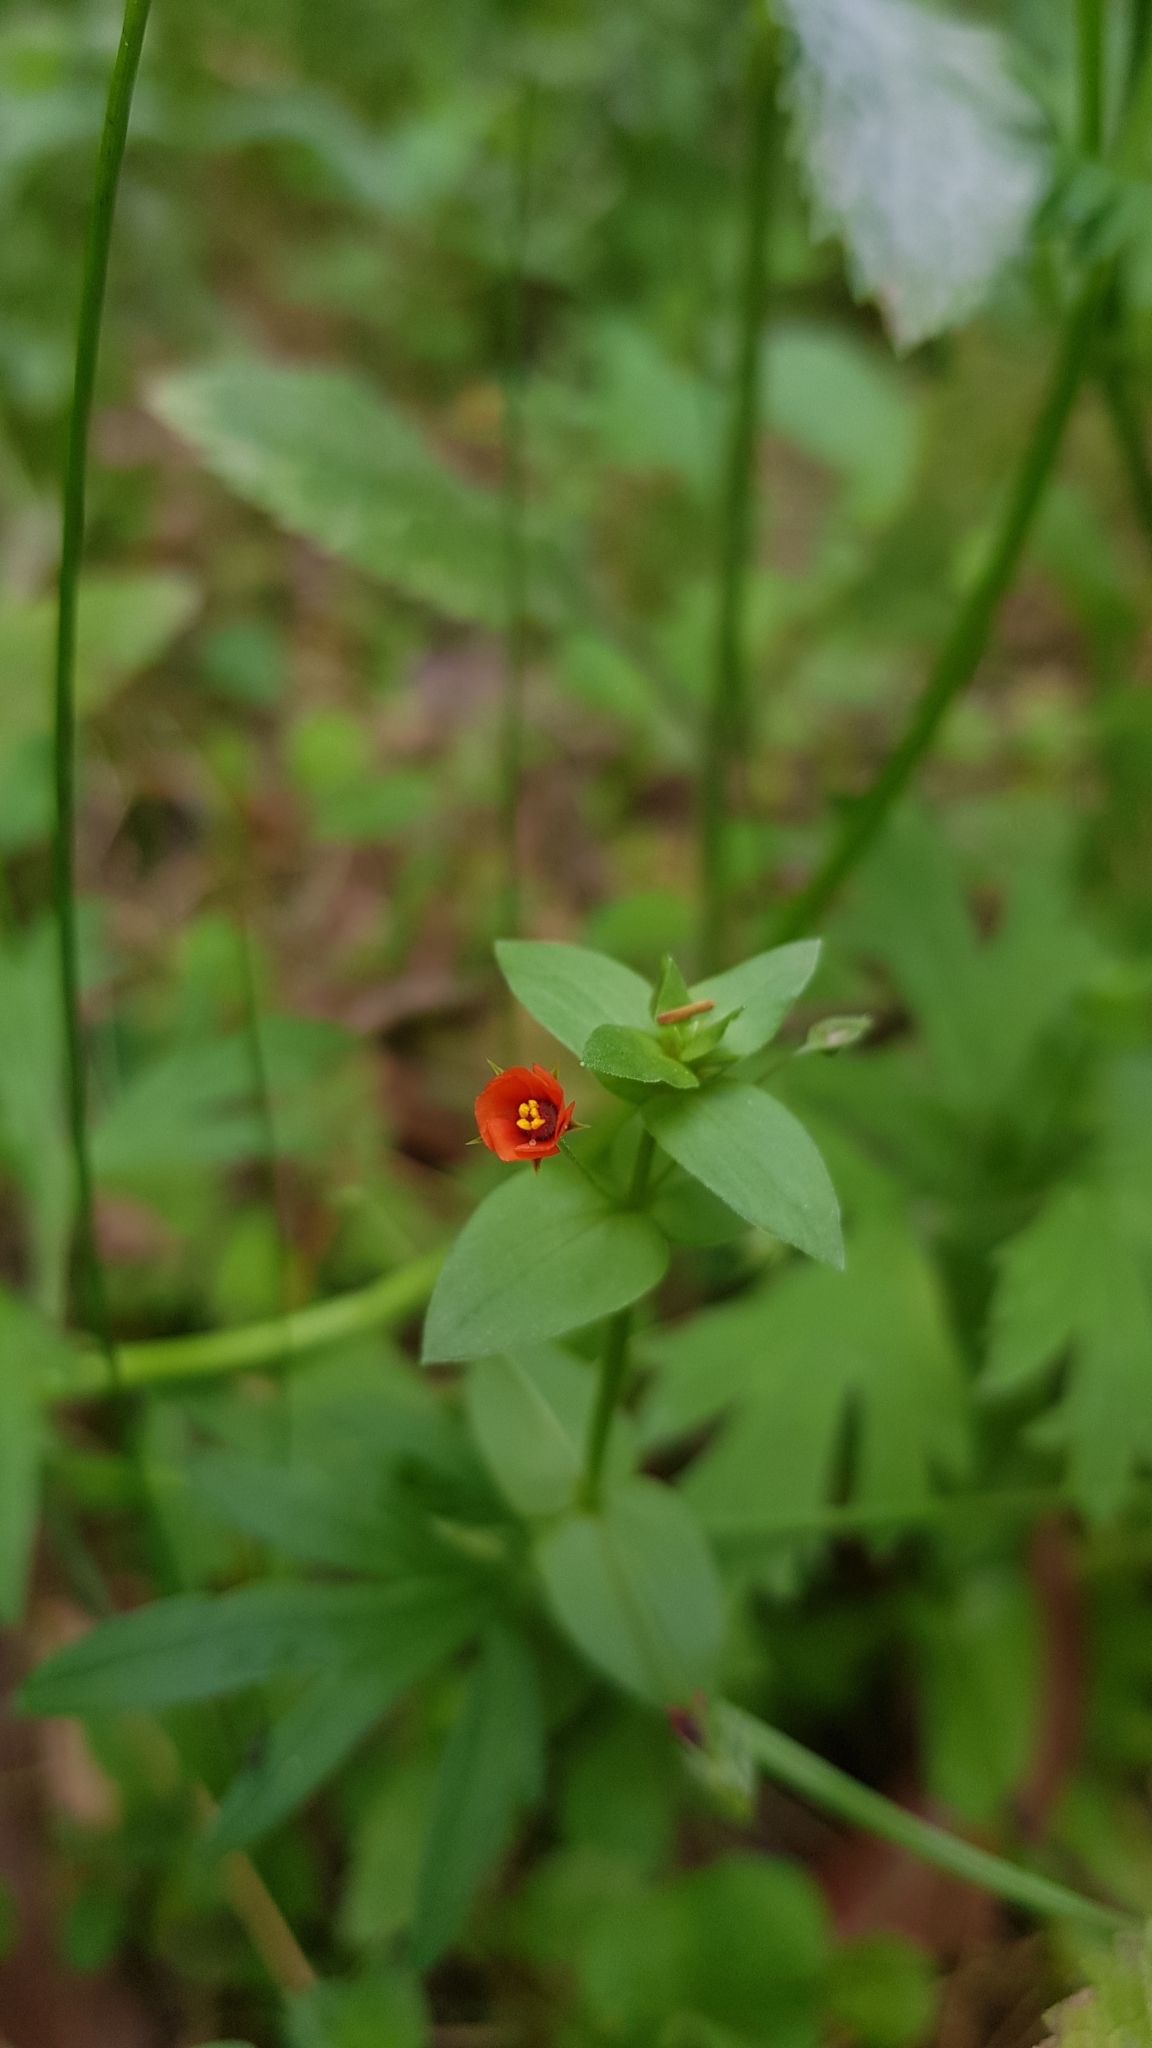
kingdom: Plantae
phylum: Tracheophyta
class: Magnoliopsida
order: Ericales
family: Primulaceae
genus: Lysimachia
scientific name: Lysimachia arvensis
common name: Scarlet pimpernel
